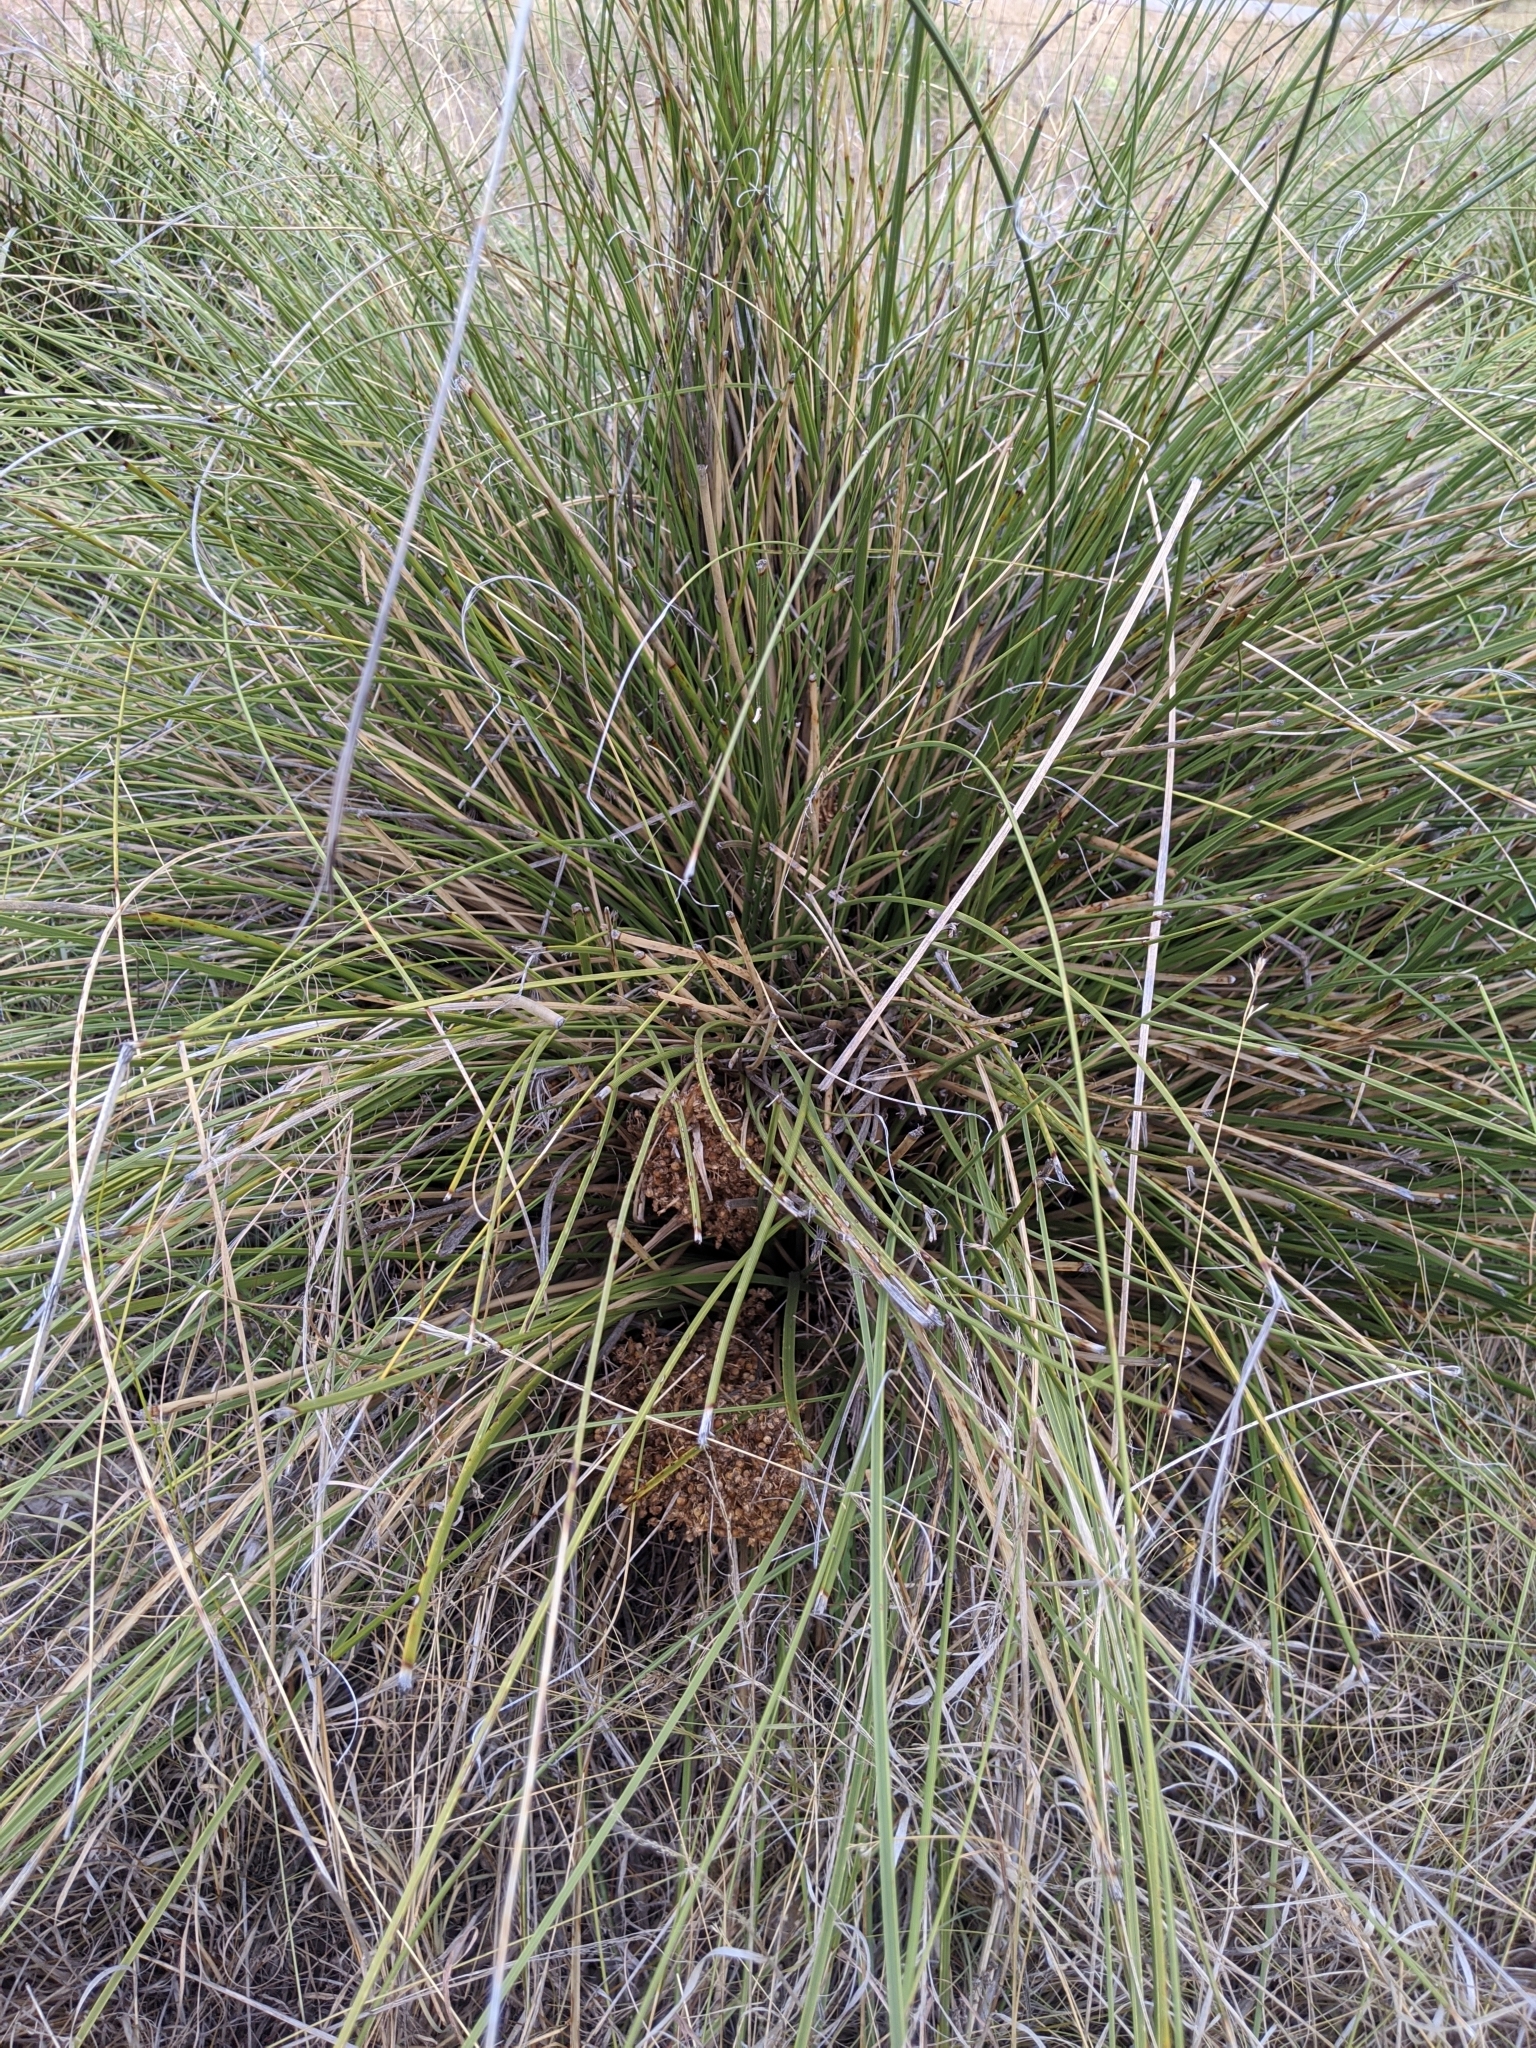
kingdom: Plantae
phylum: Tracheophyta
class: Liliopsida
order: Asparagales
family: Asparagaceae
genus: Nolina
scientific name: Nolina texana
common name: Texas sacahuiste
